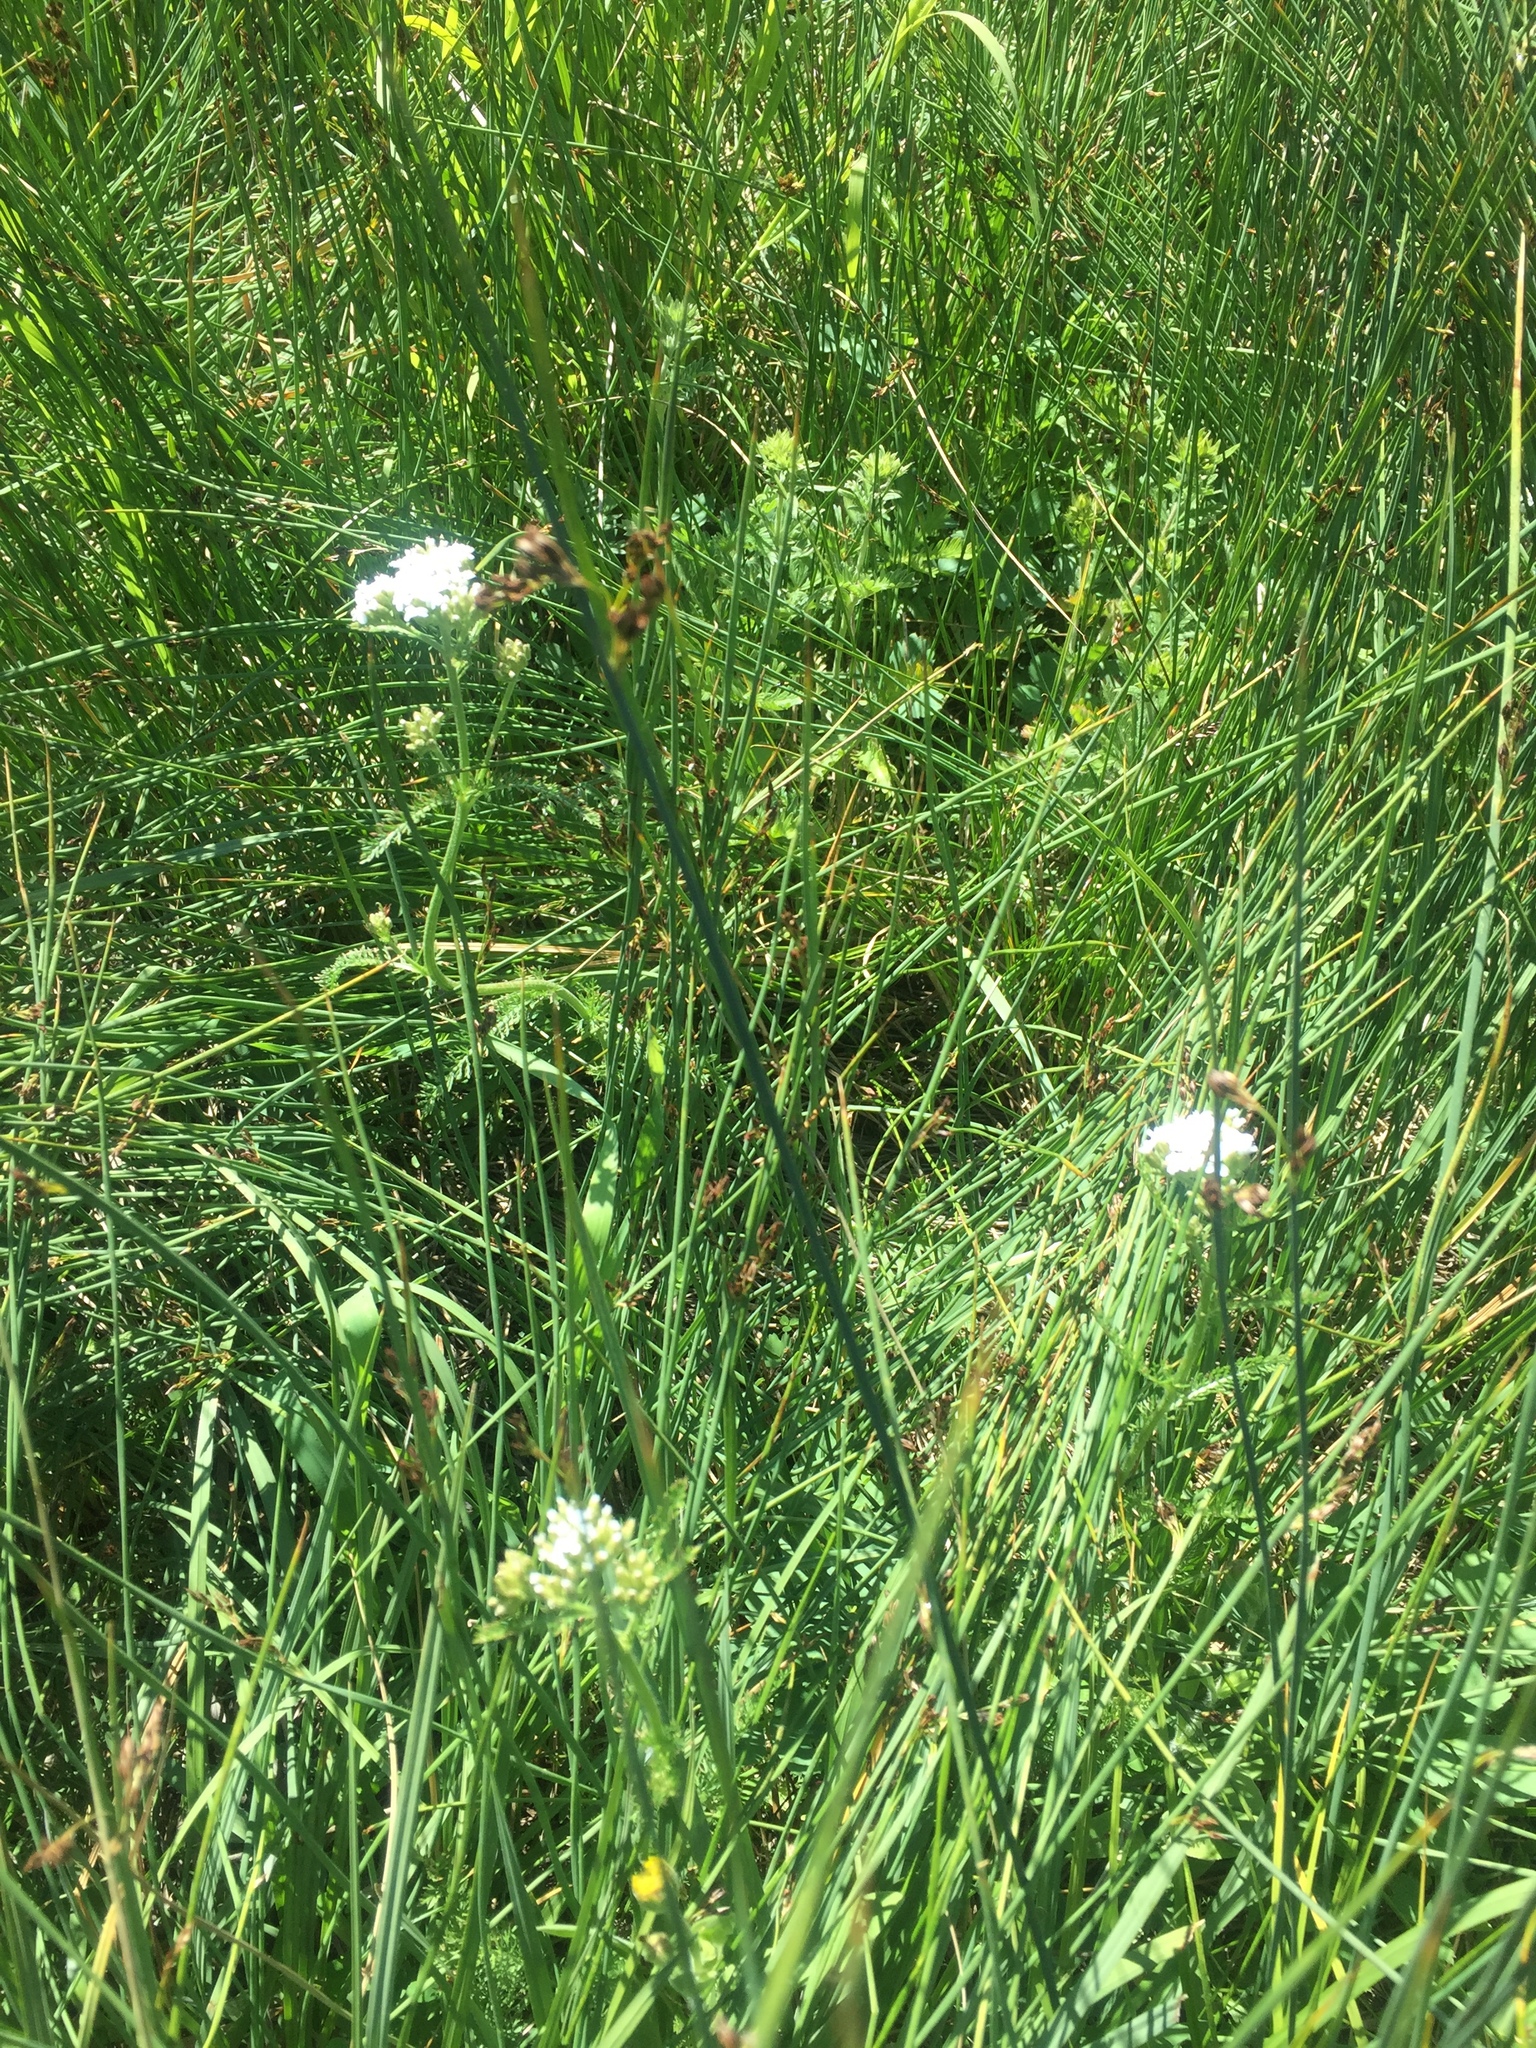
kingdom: Plantae
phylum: Tracheophyta
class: Magnoliopsida
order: Asterales
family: Asteraceae
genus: Achillea
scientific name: Achillea millefolium
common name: Yarrow
